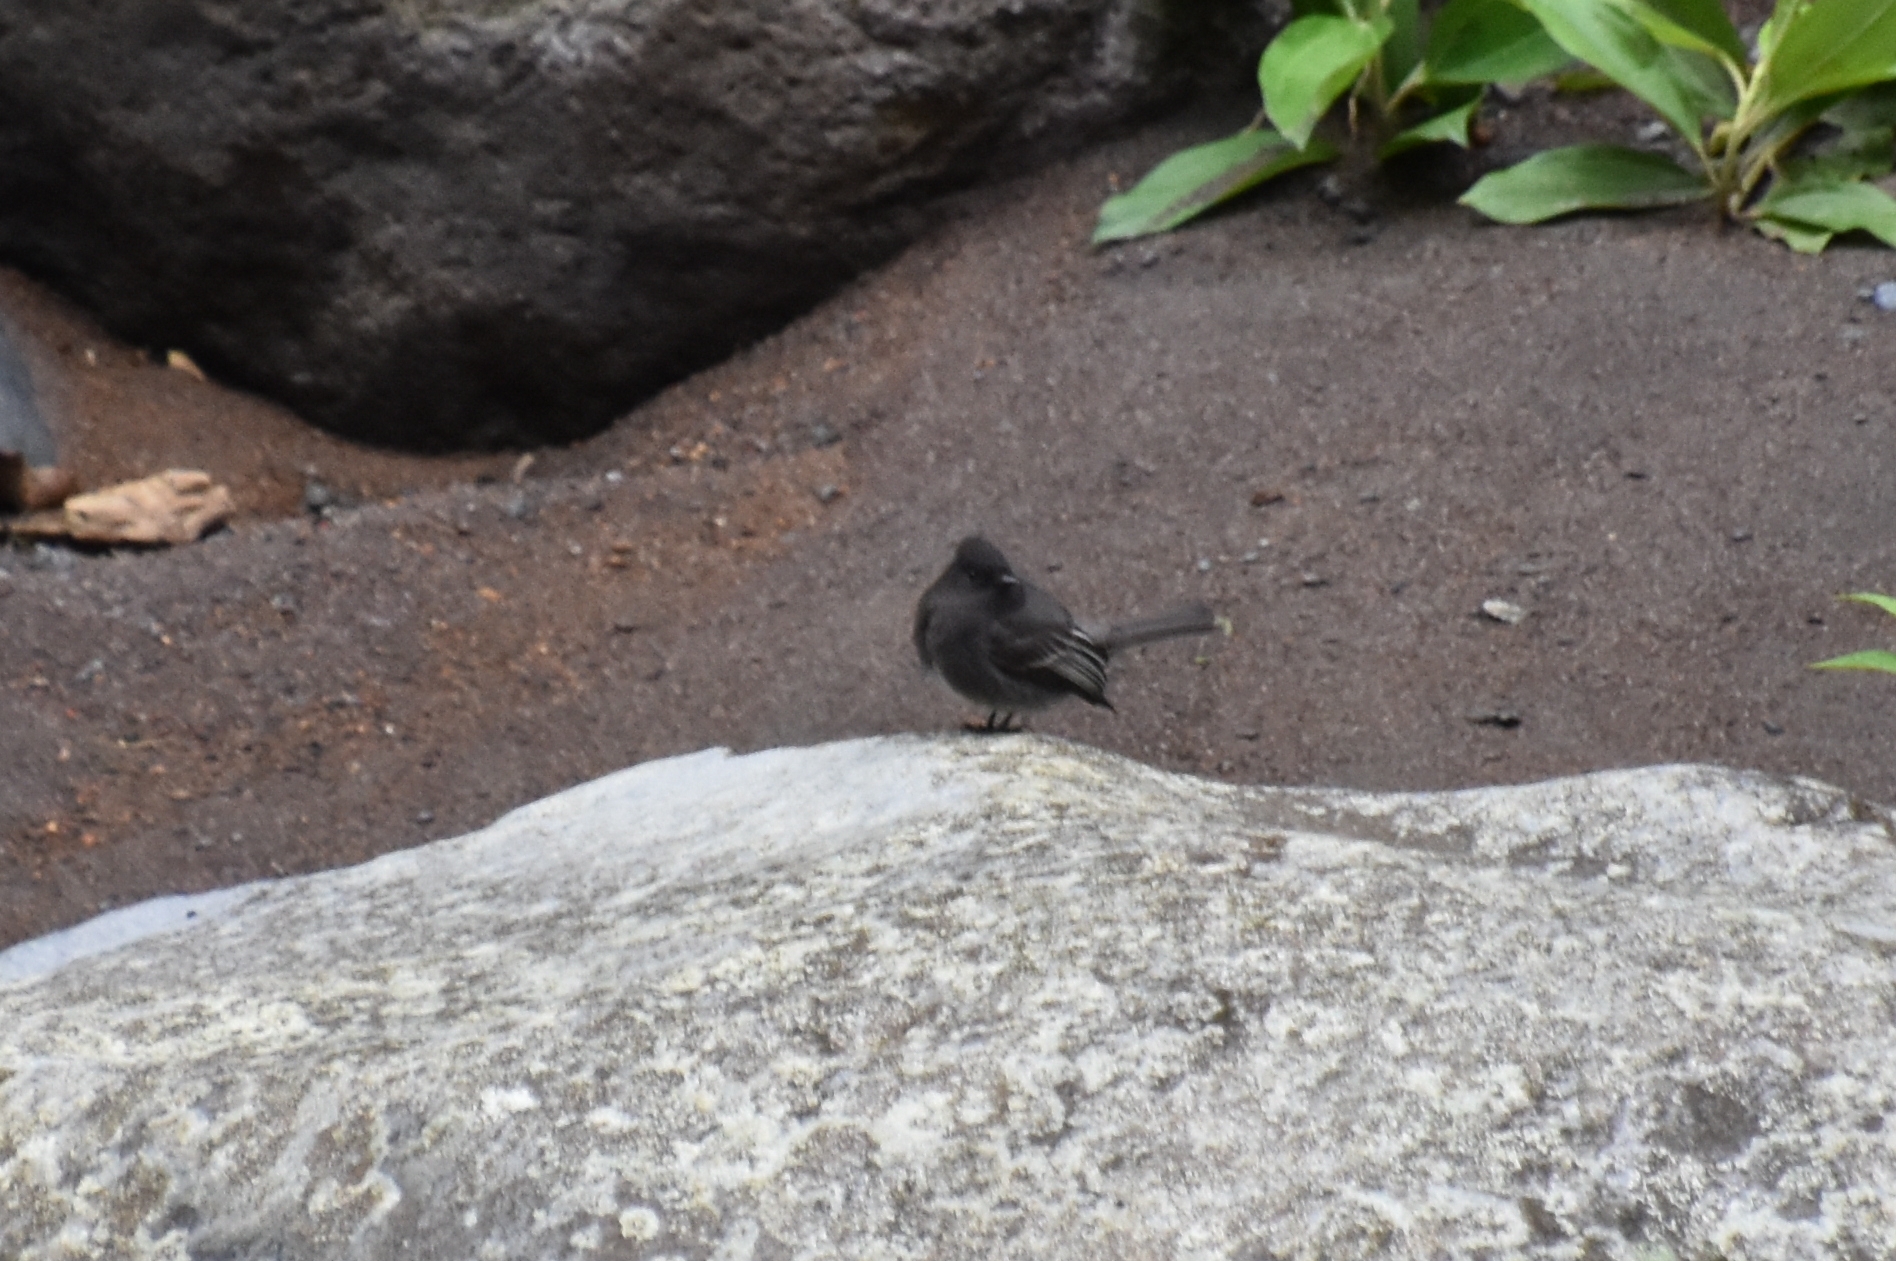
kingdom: Animalia
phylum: Chordata
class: Aves
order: Passeriformes
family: Tyrannidae
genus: Sayornis
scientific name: Sayornis nigricans
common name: Black phoebe
